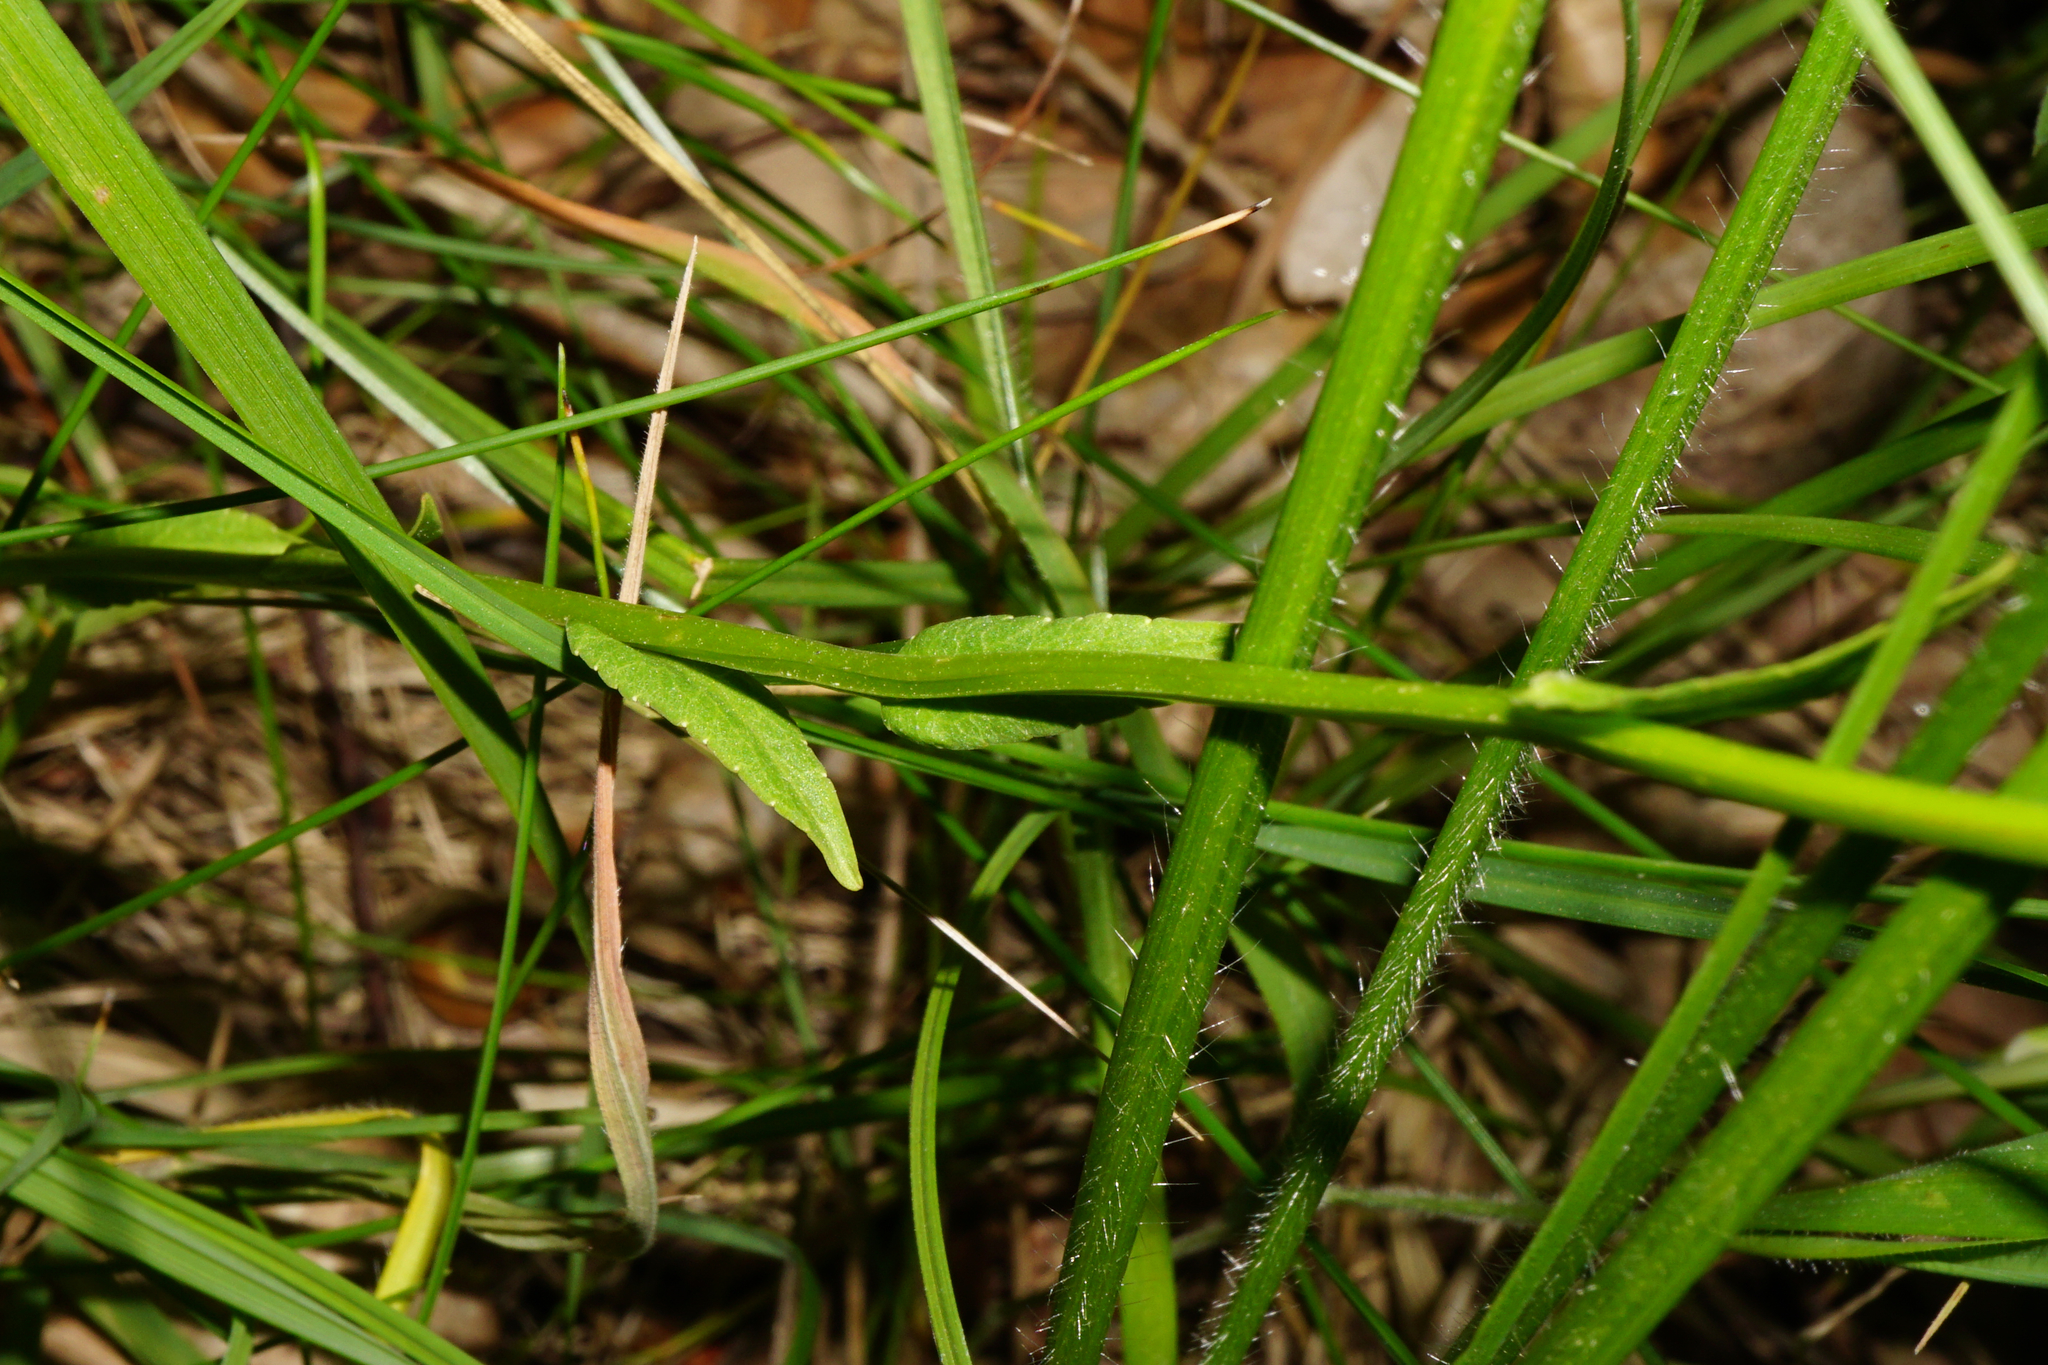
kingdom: Plantae
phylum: Tracheophyta
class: Magnoliopsida
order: Asterales
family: Campanulaceae
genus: Campanula
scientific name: Campanula patula
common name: Spreading bellflower
